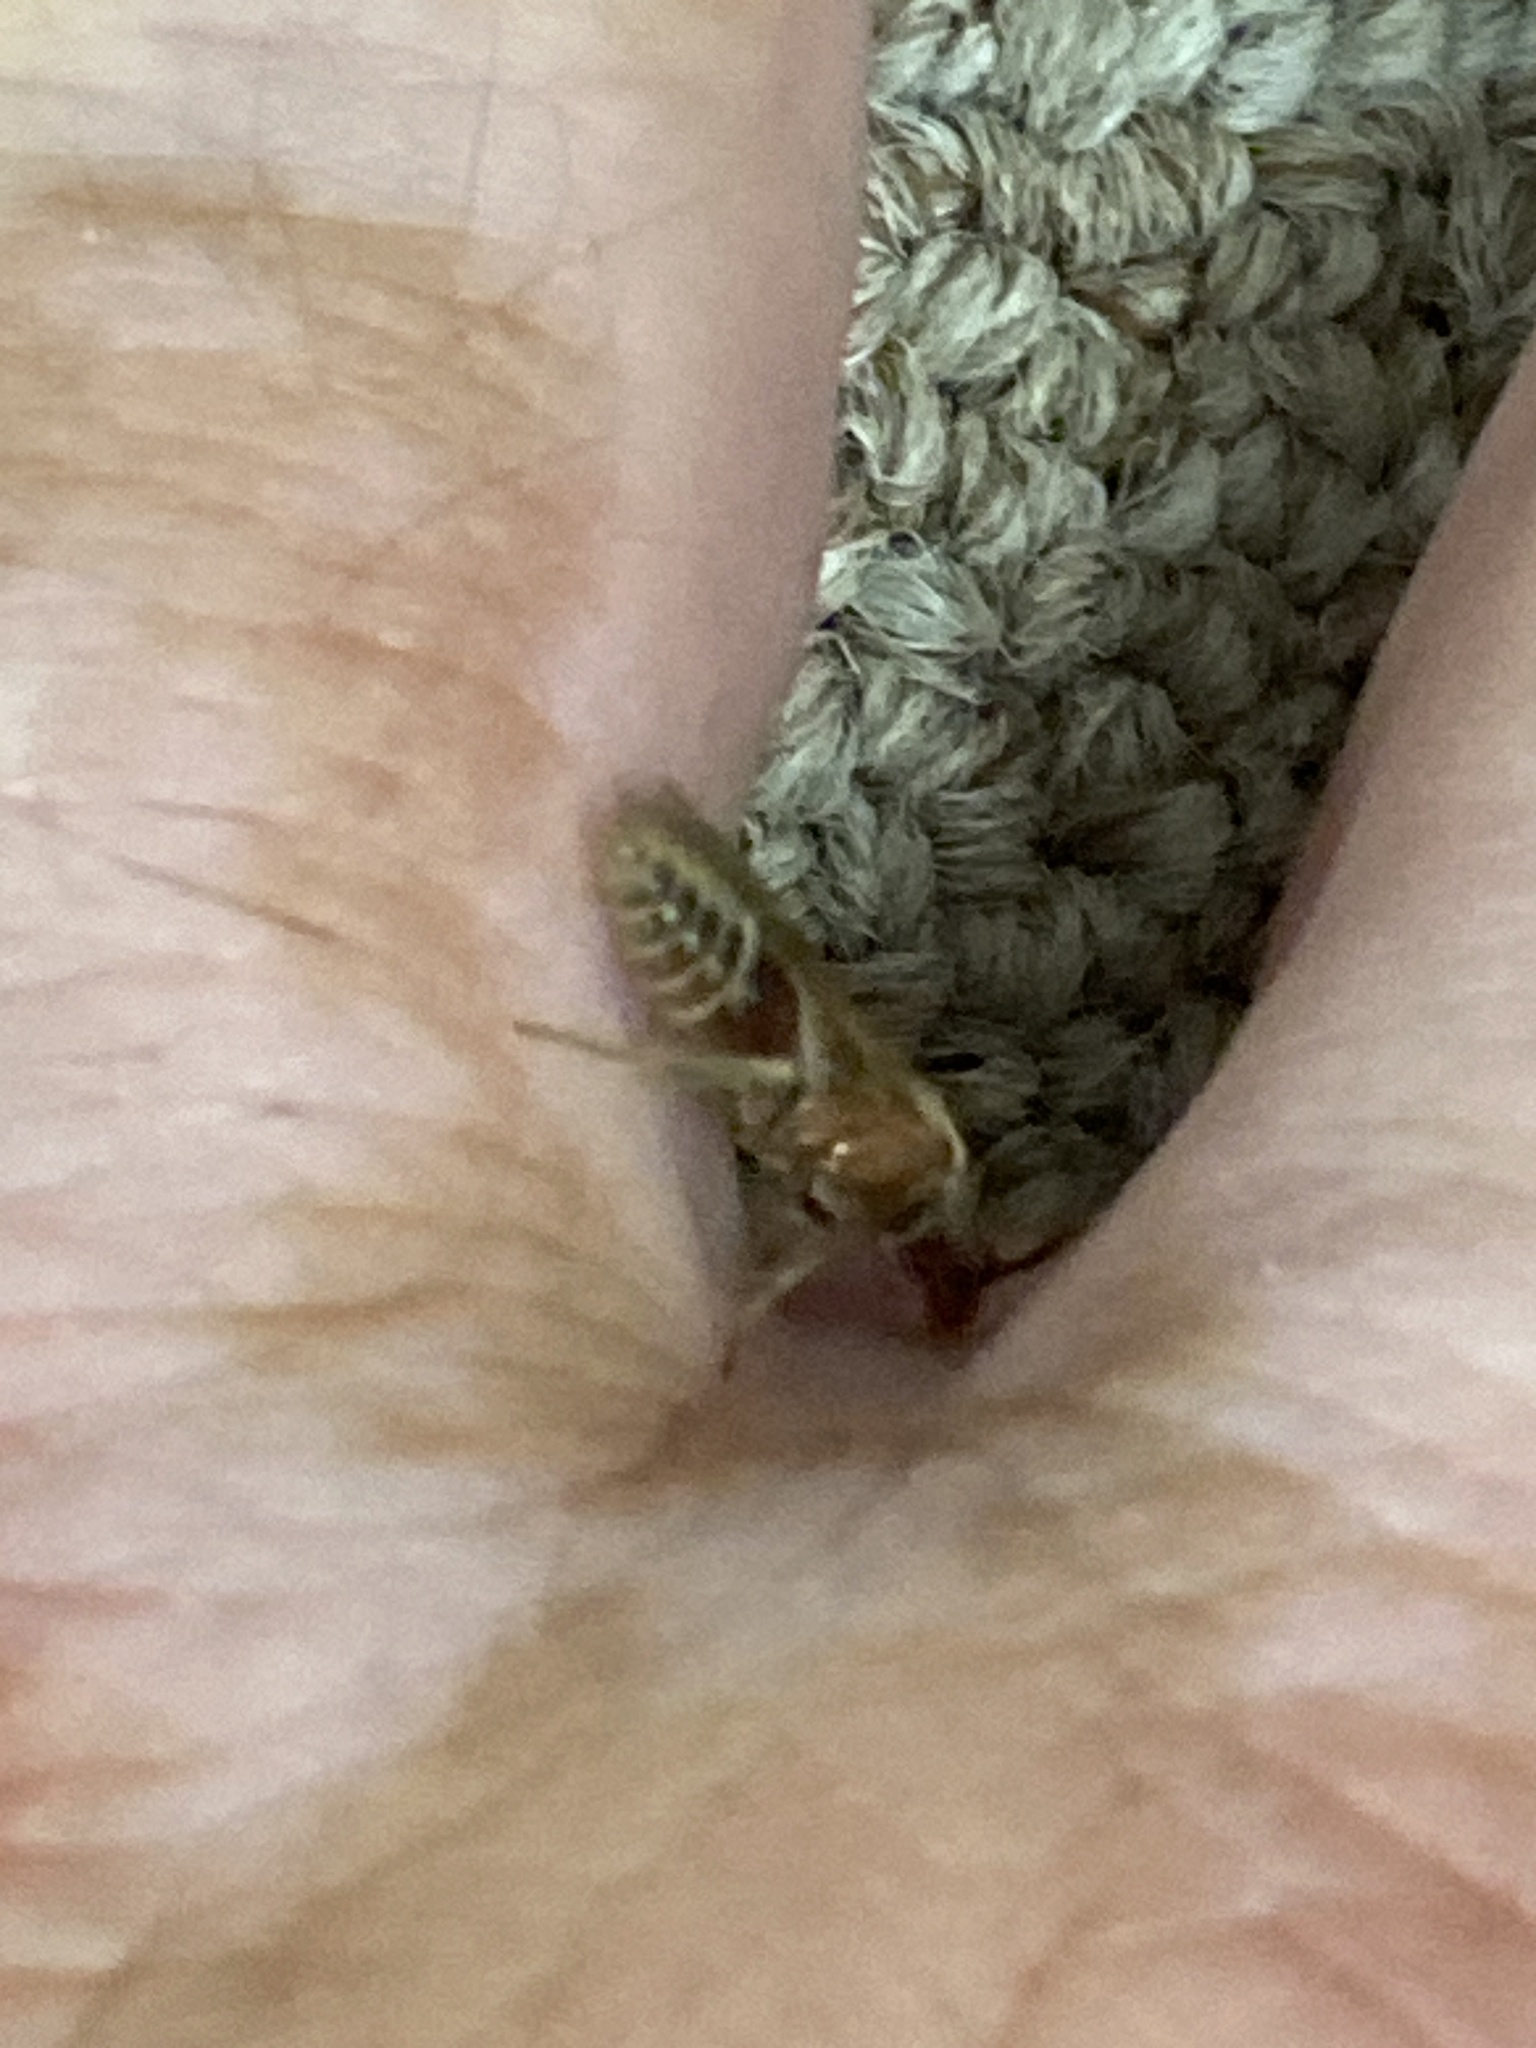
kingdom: Animalia
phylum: Arthropoda
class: Insecta
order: Hymenoptera
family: Mutillidae
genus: Odontophotopsis
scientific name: Odontophotopsis
